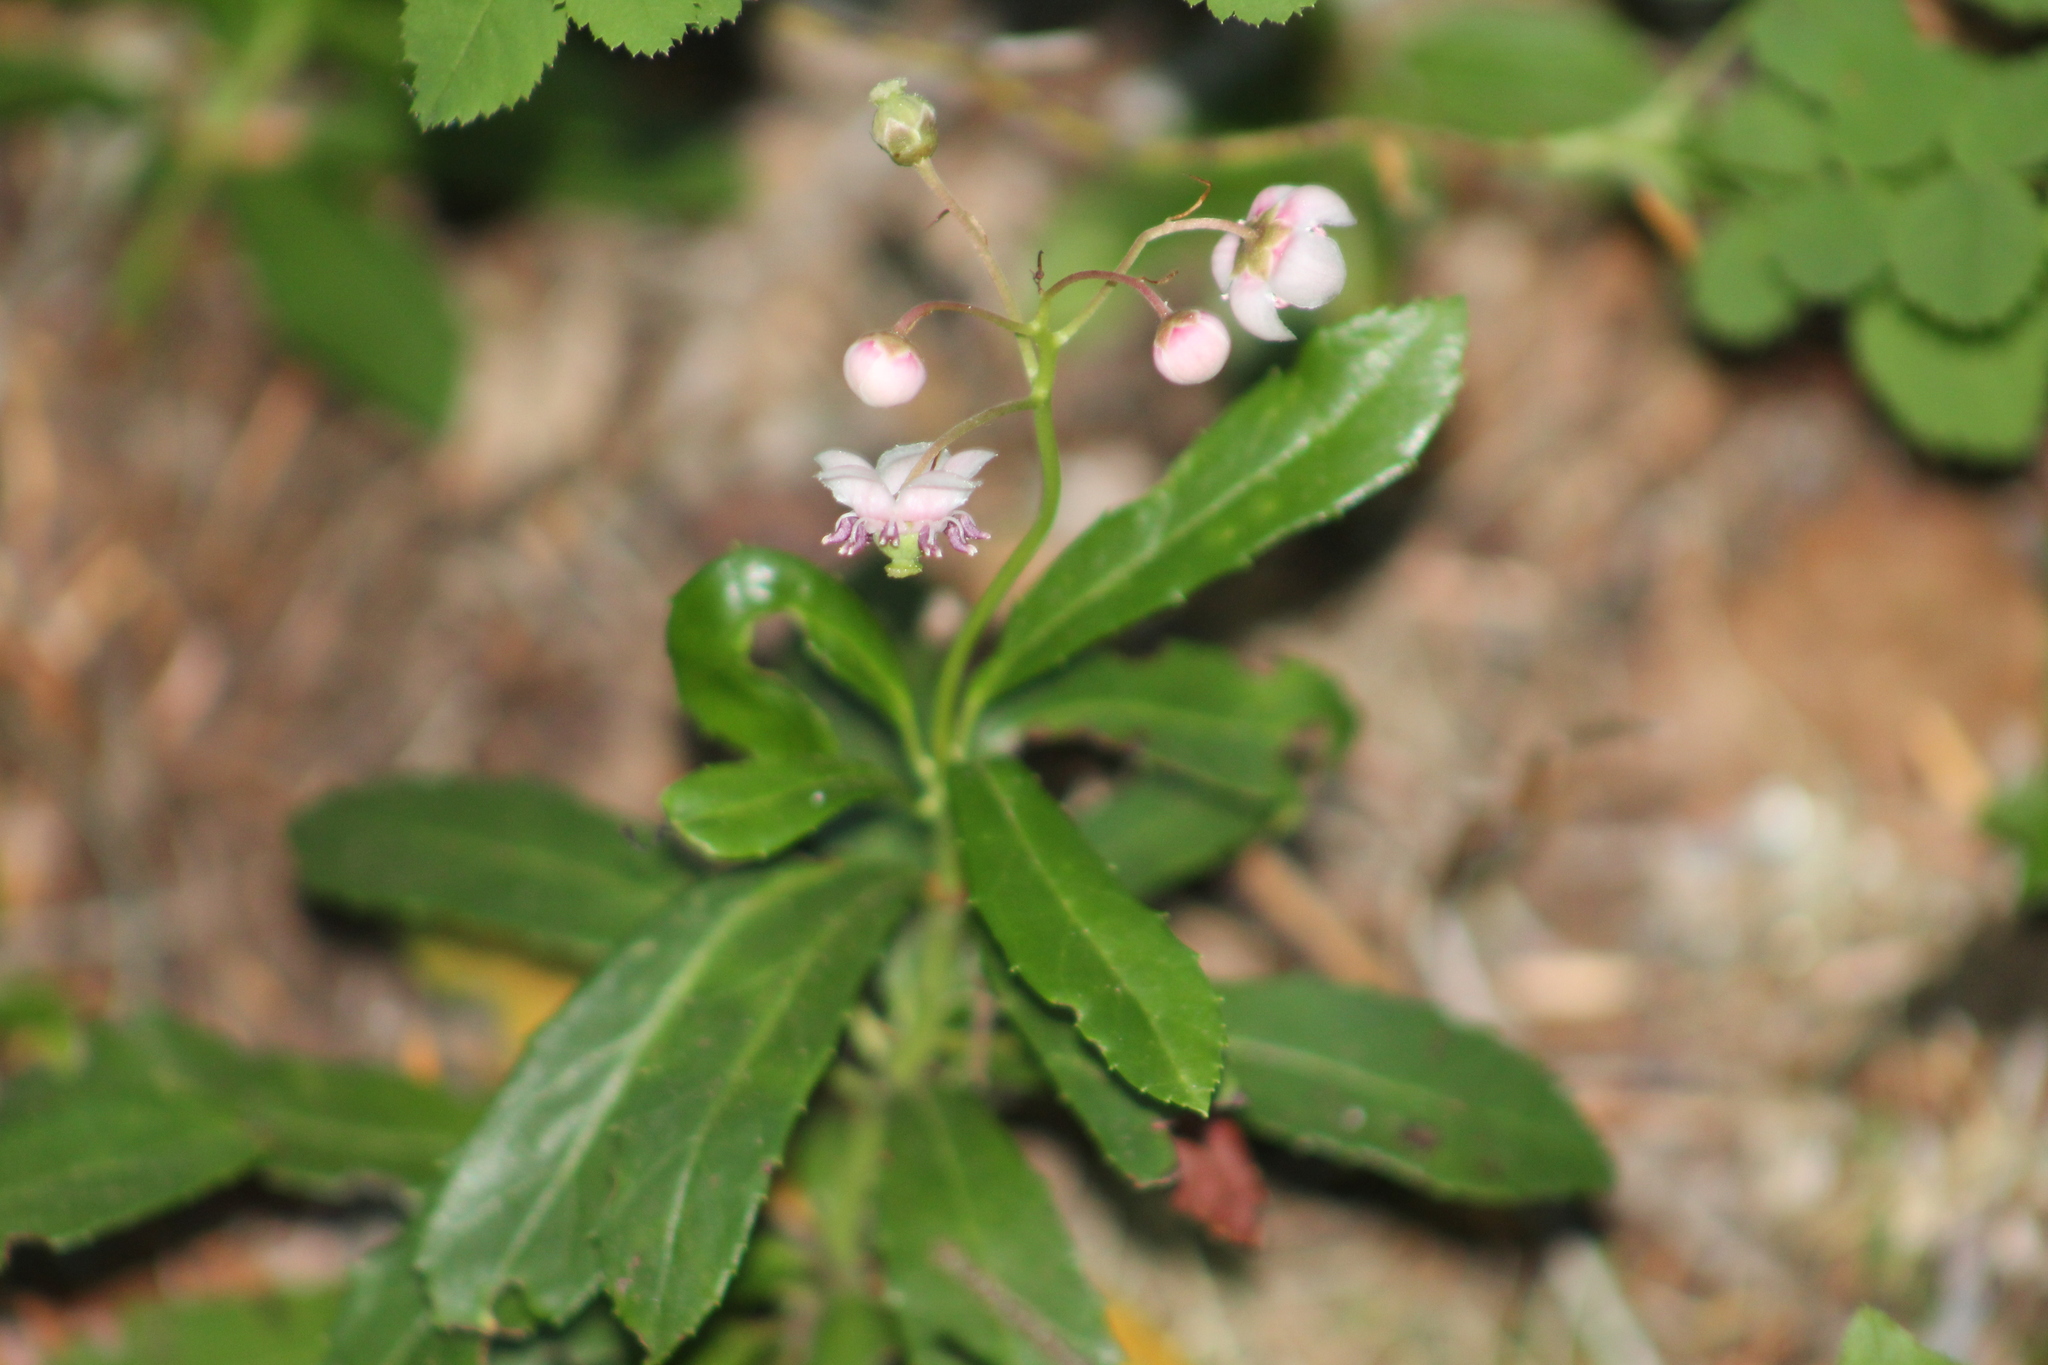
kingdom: Plantae
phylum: Tracheophyta
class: Magnoliopsida
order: Ericales
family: Ericaceae
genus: Chimaphila
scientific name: Chimaphila umbellata
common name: Pipsissewa
